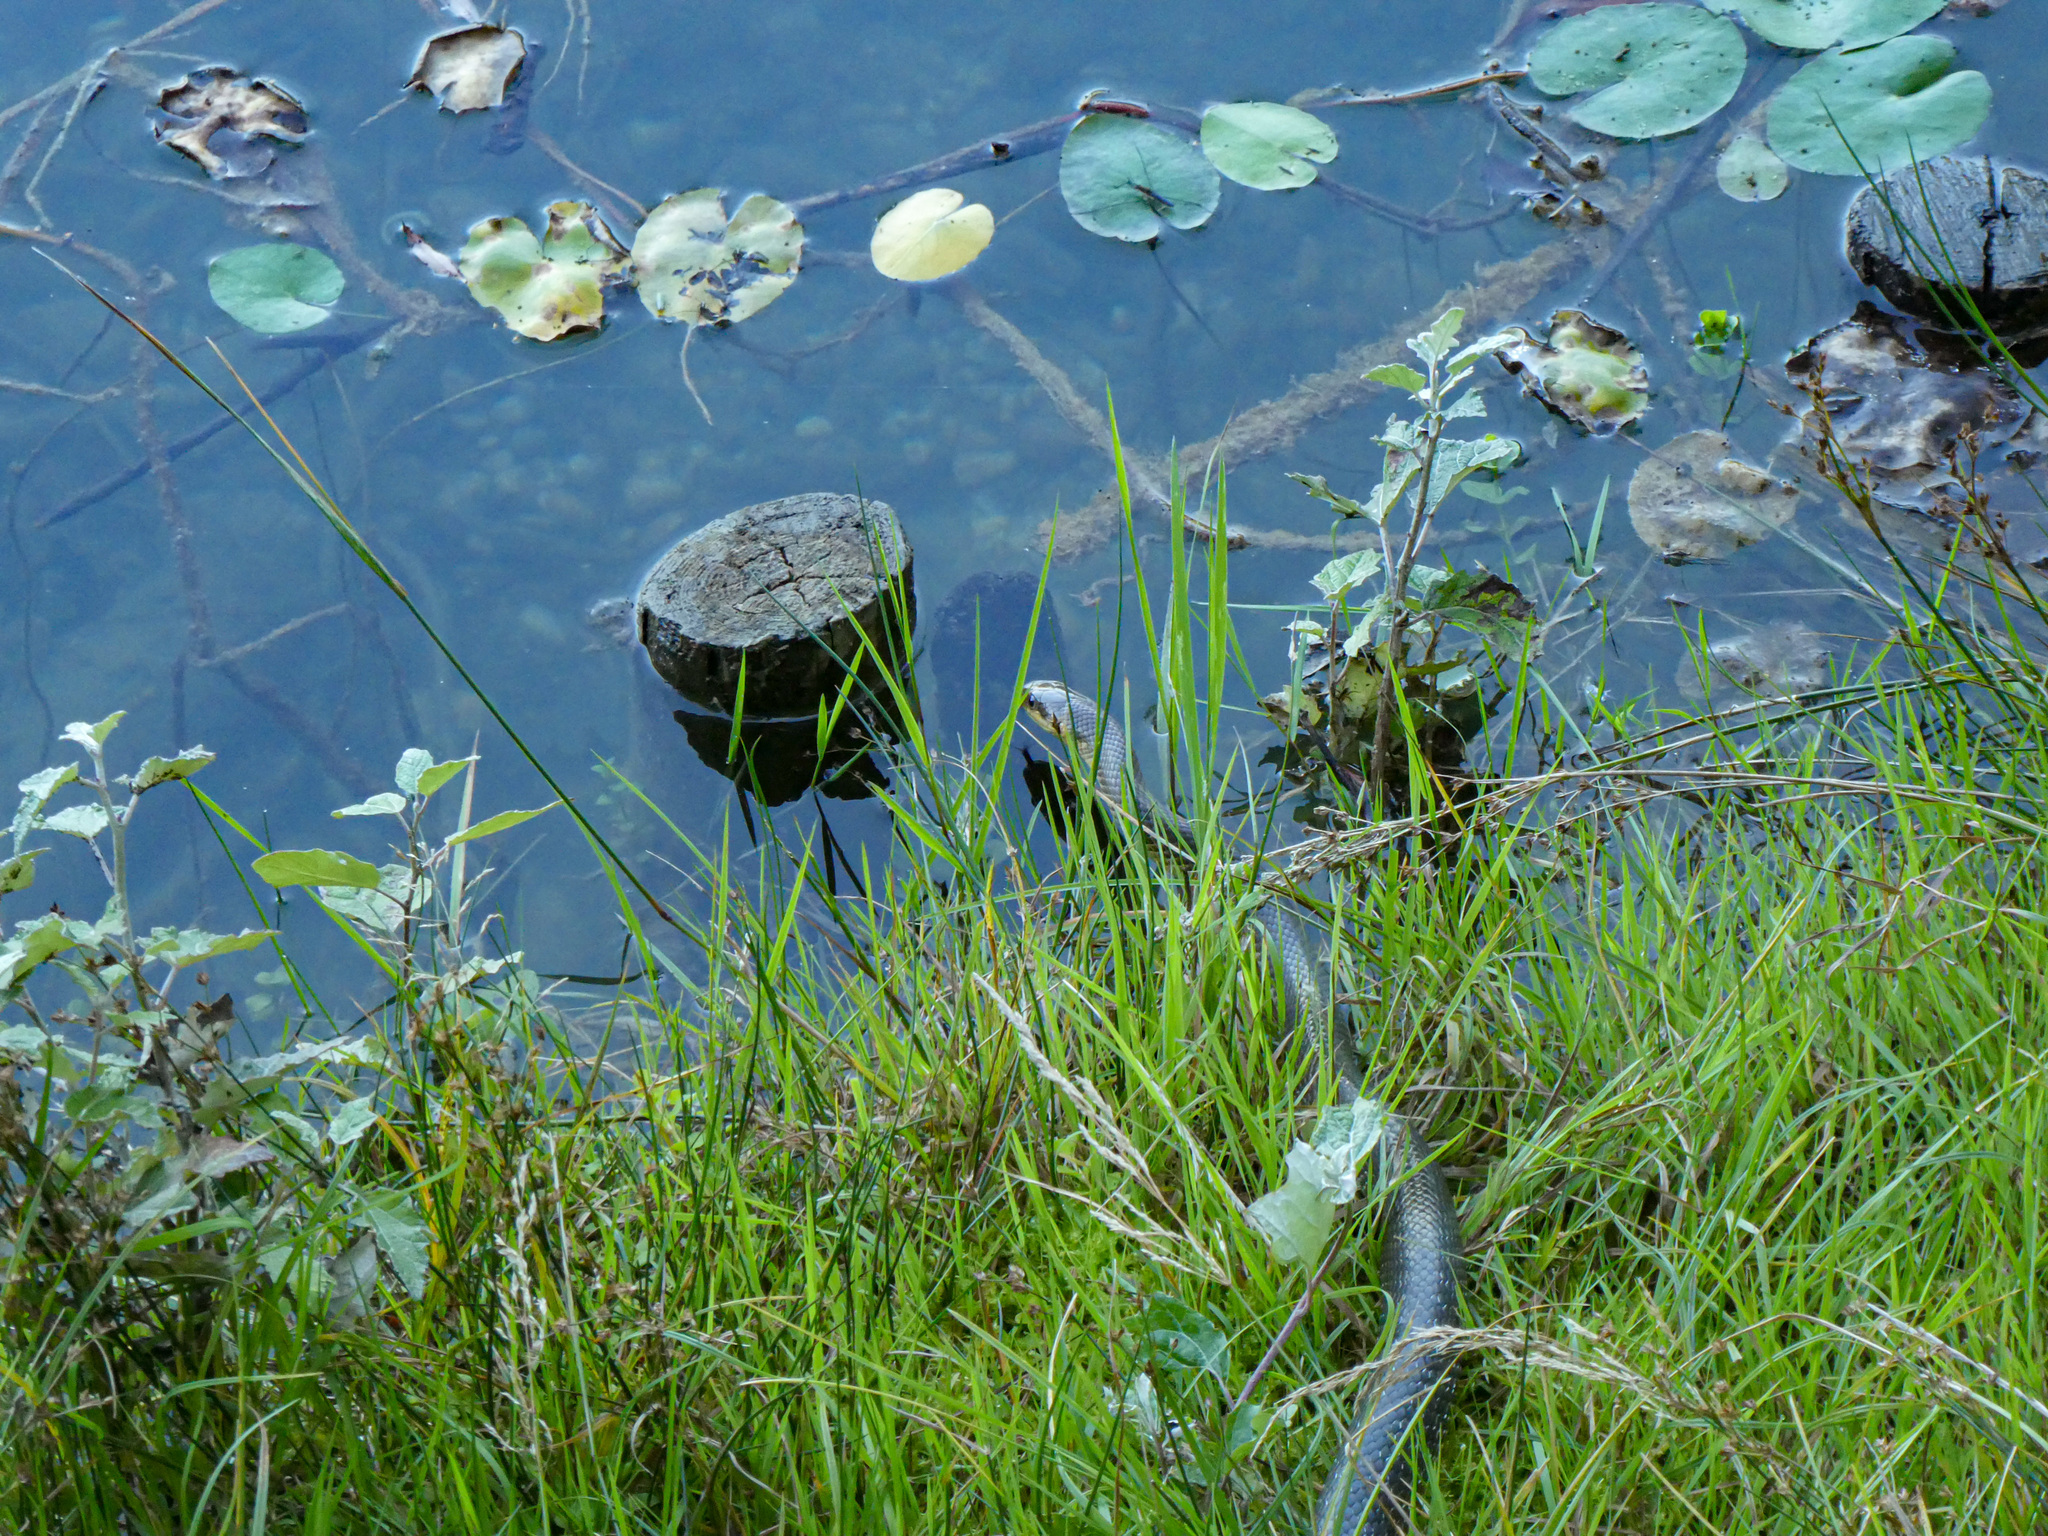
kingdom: Animalia
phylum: Chordata
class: Squamata
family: Colubridae
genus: Zamenis
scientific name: Zamenis longissimus
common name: Aesculapean snake
